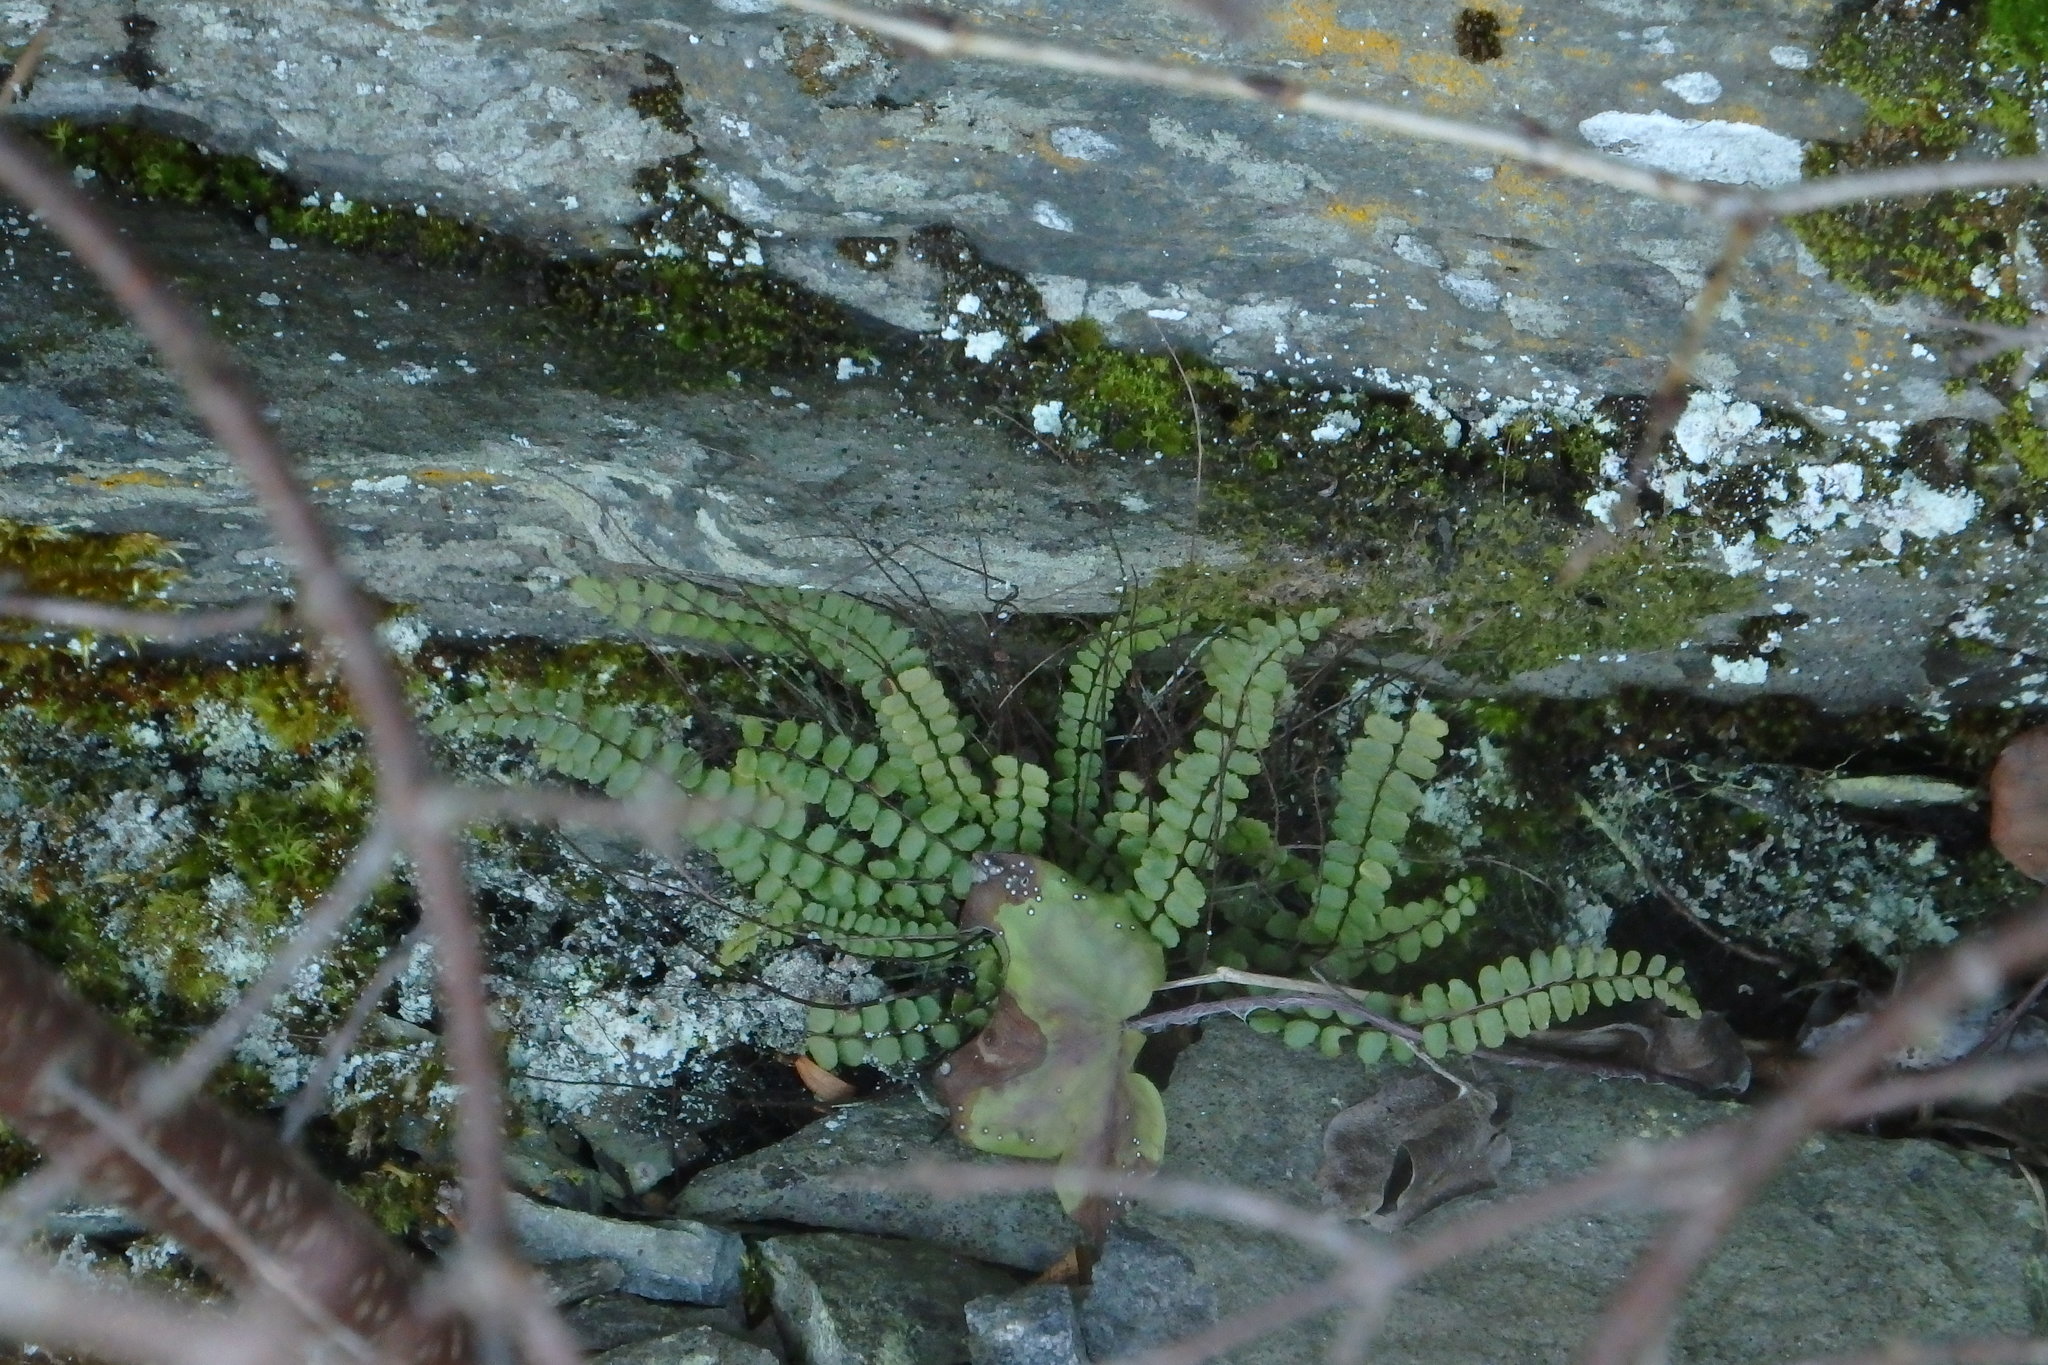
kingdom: Plantae
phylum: Tracheophyta
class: Polypodiopsida
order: Polypodiales
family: Aspleniaceae
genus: Asplenium
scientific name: Asplenium trichomanes
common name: Maidenhair spleenwort
